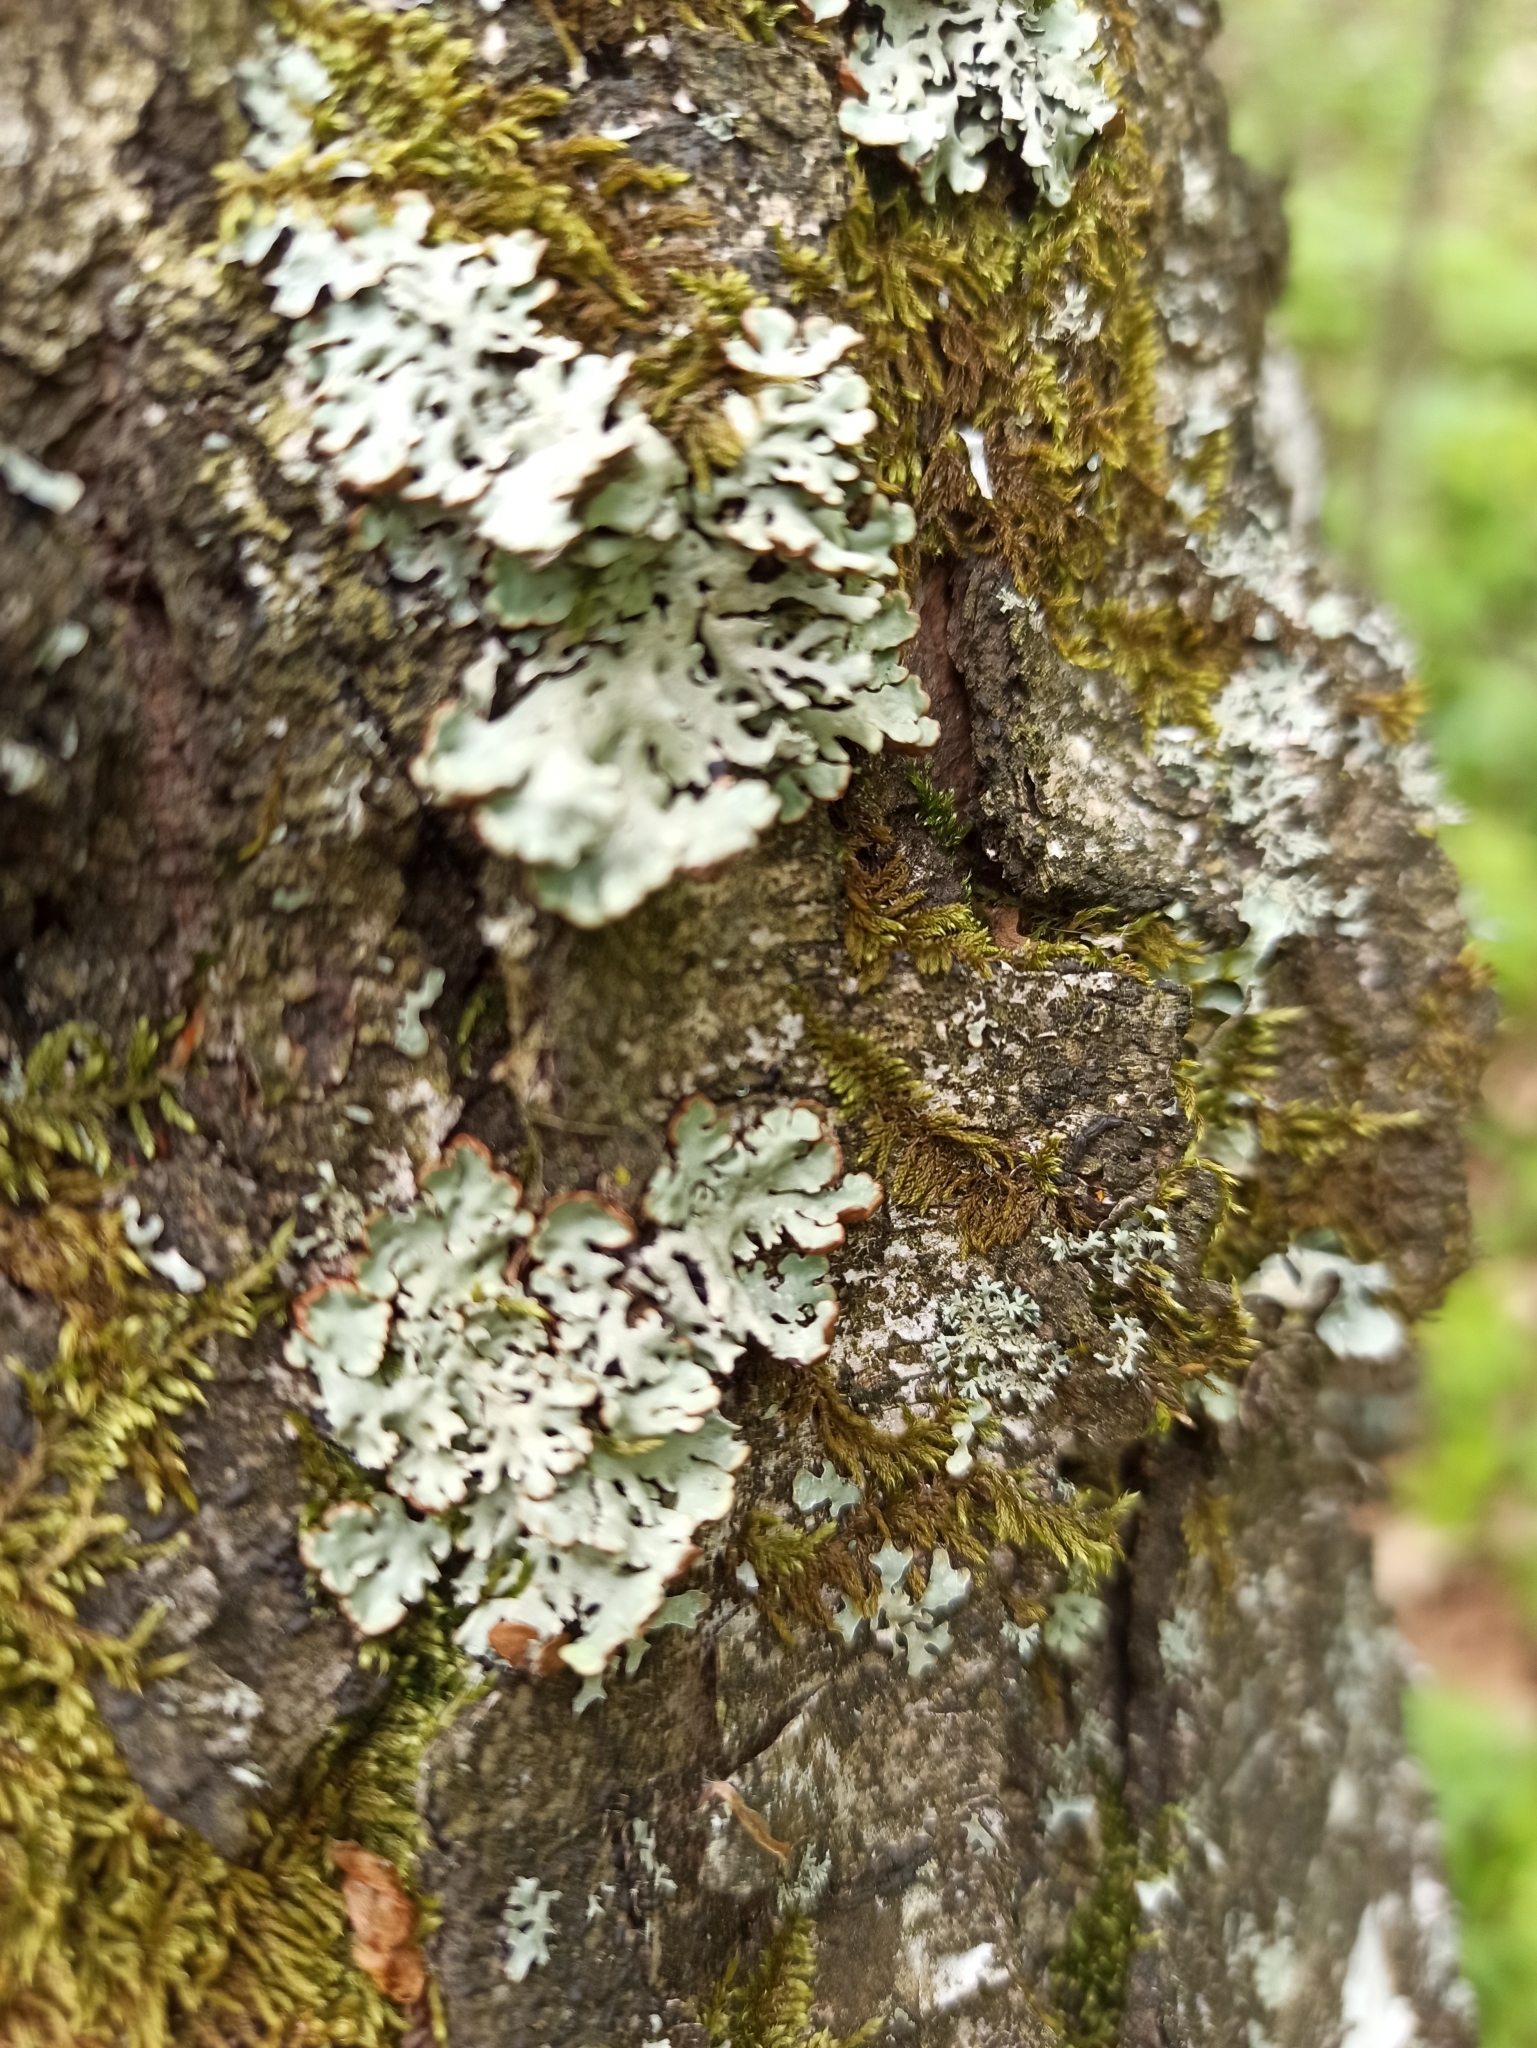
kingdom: Fungi
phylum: Ascomycota
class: Lecanoromycetes
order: Lecanorales
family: Parmeliaceae
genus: Hypogymnia
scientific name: Hypogymnia physodes
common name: Dark crottle
